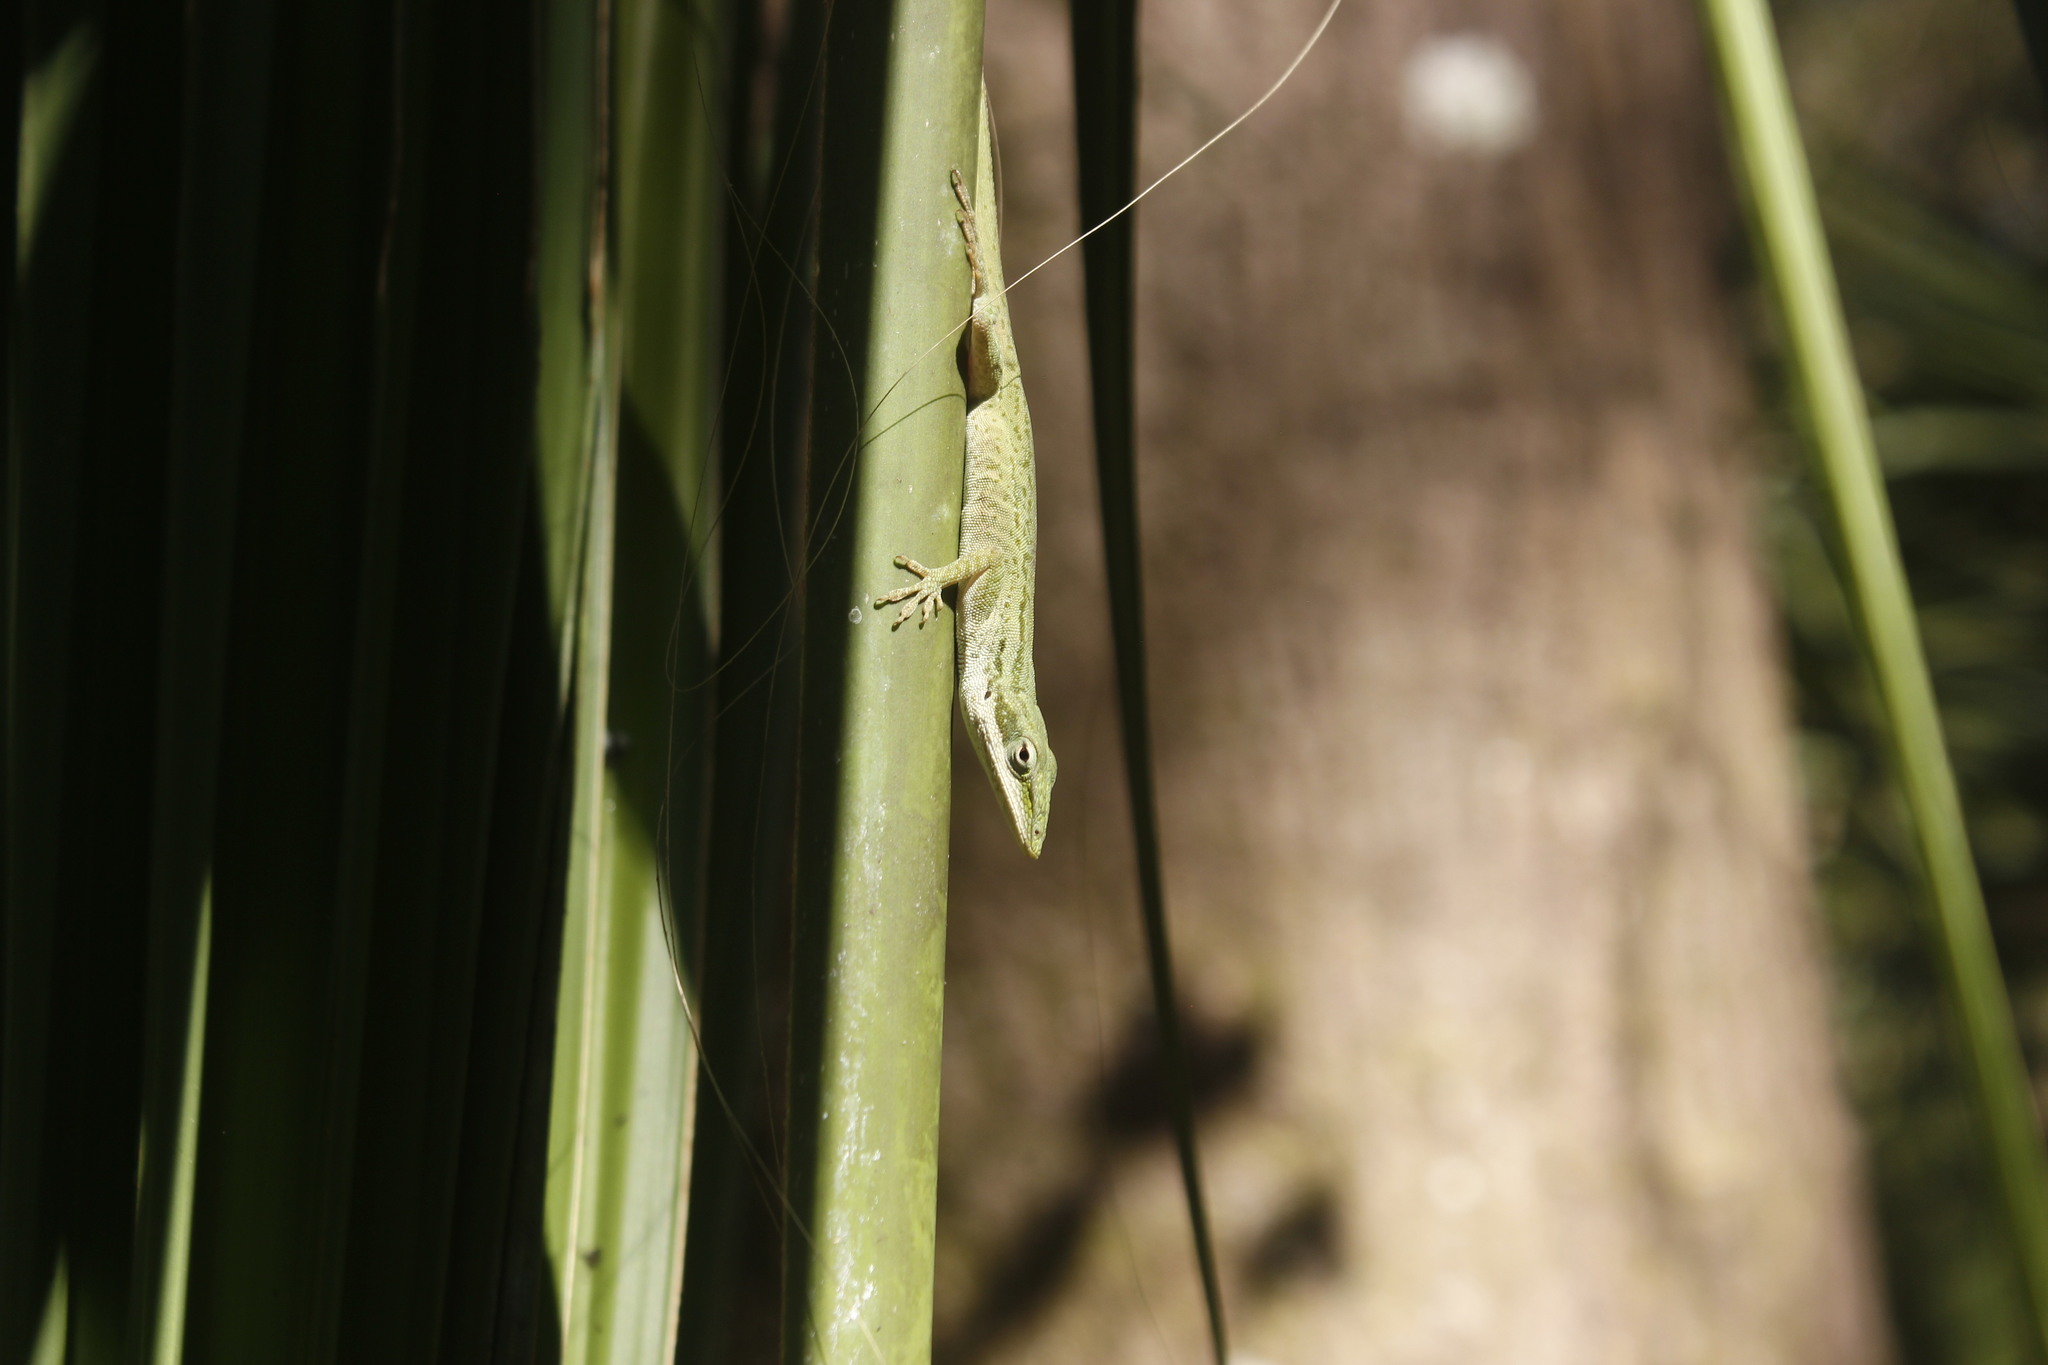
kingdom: Animalia
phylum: Chordata
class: Squamata
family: Dactyloidae
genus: Anolis
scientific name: Anolis carolinensis
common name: Green anole
